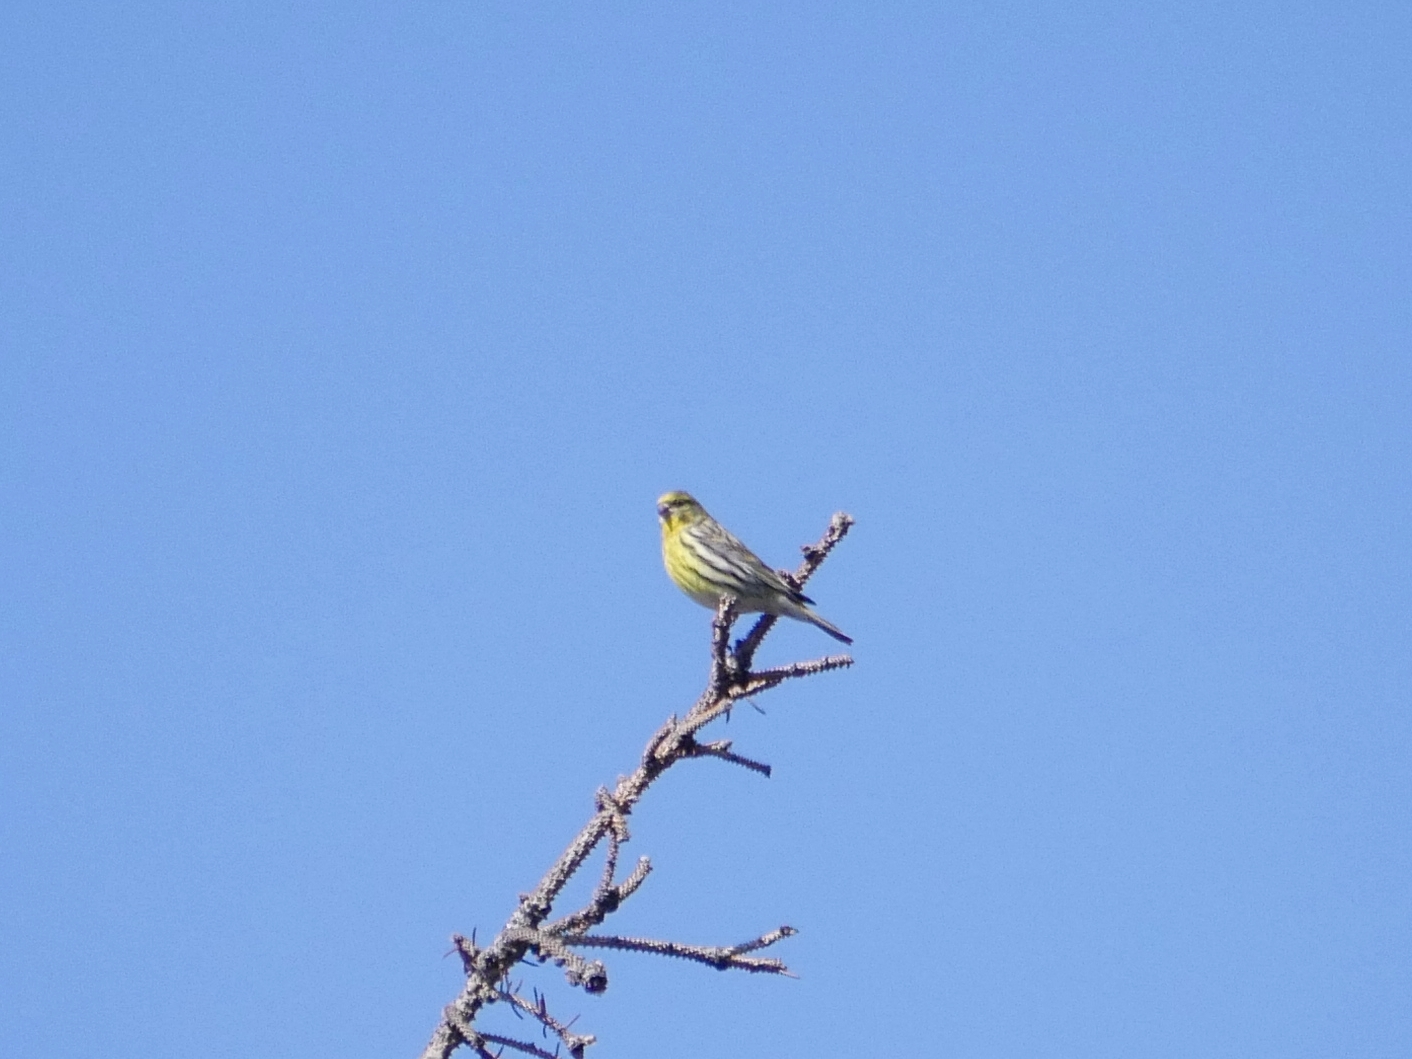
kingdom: Animalia
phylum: Chordata
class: Aves
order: Passeriformes
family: Fringillidae
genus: Serinus
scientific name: Serinus serinus
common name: European serin
